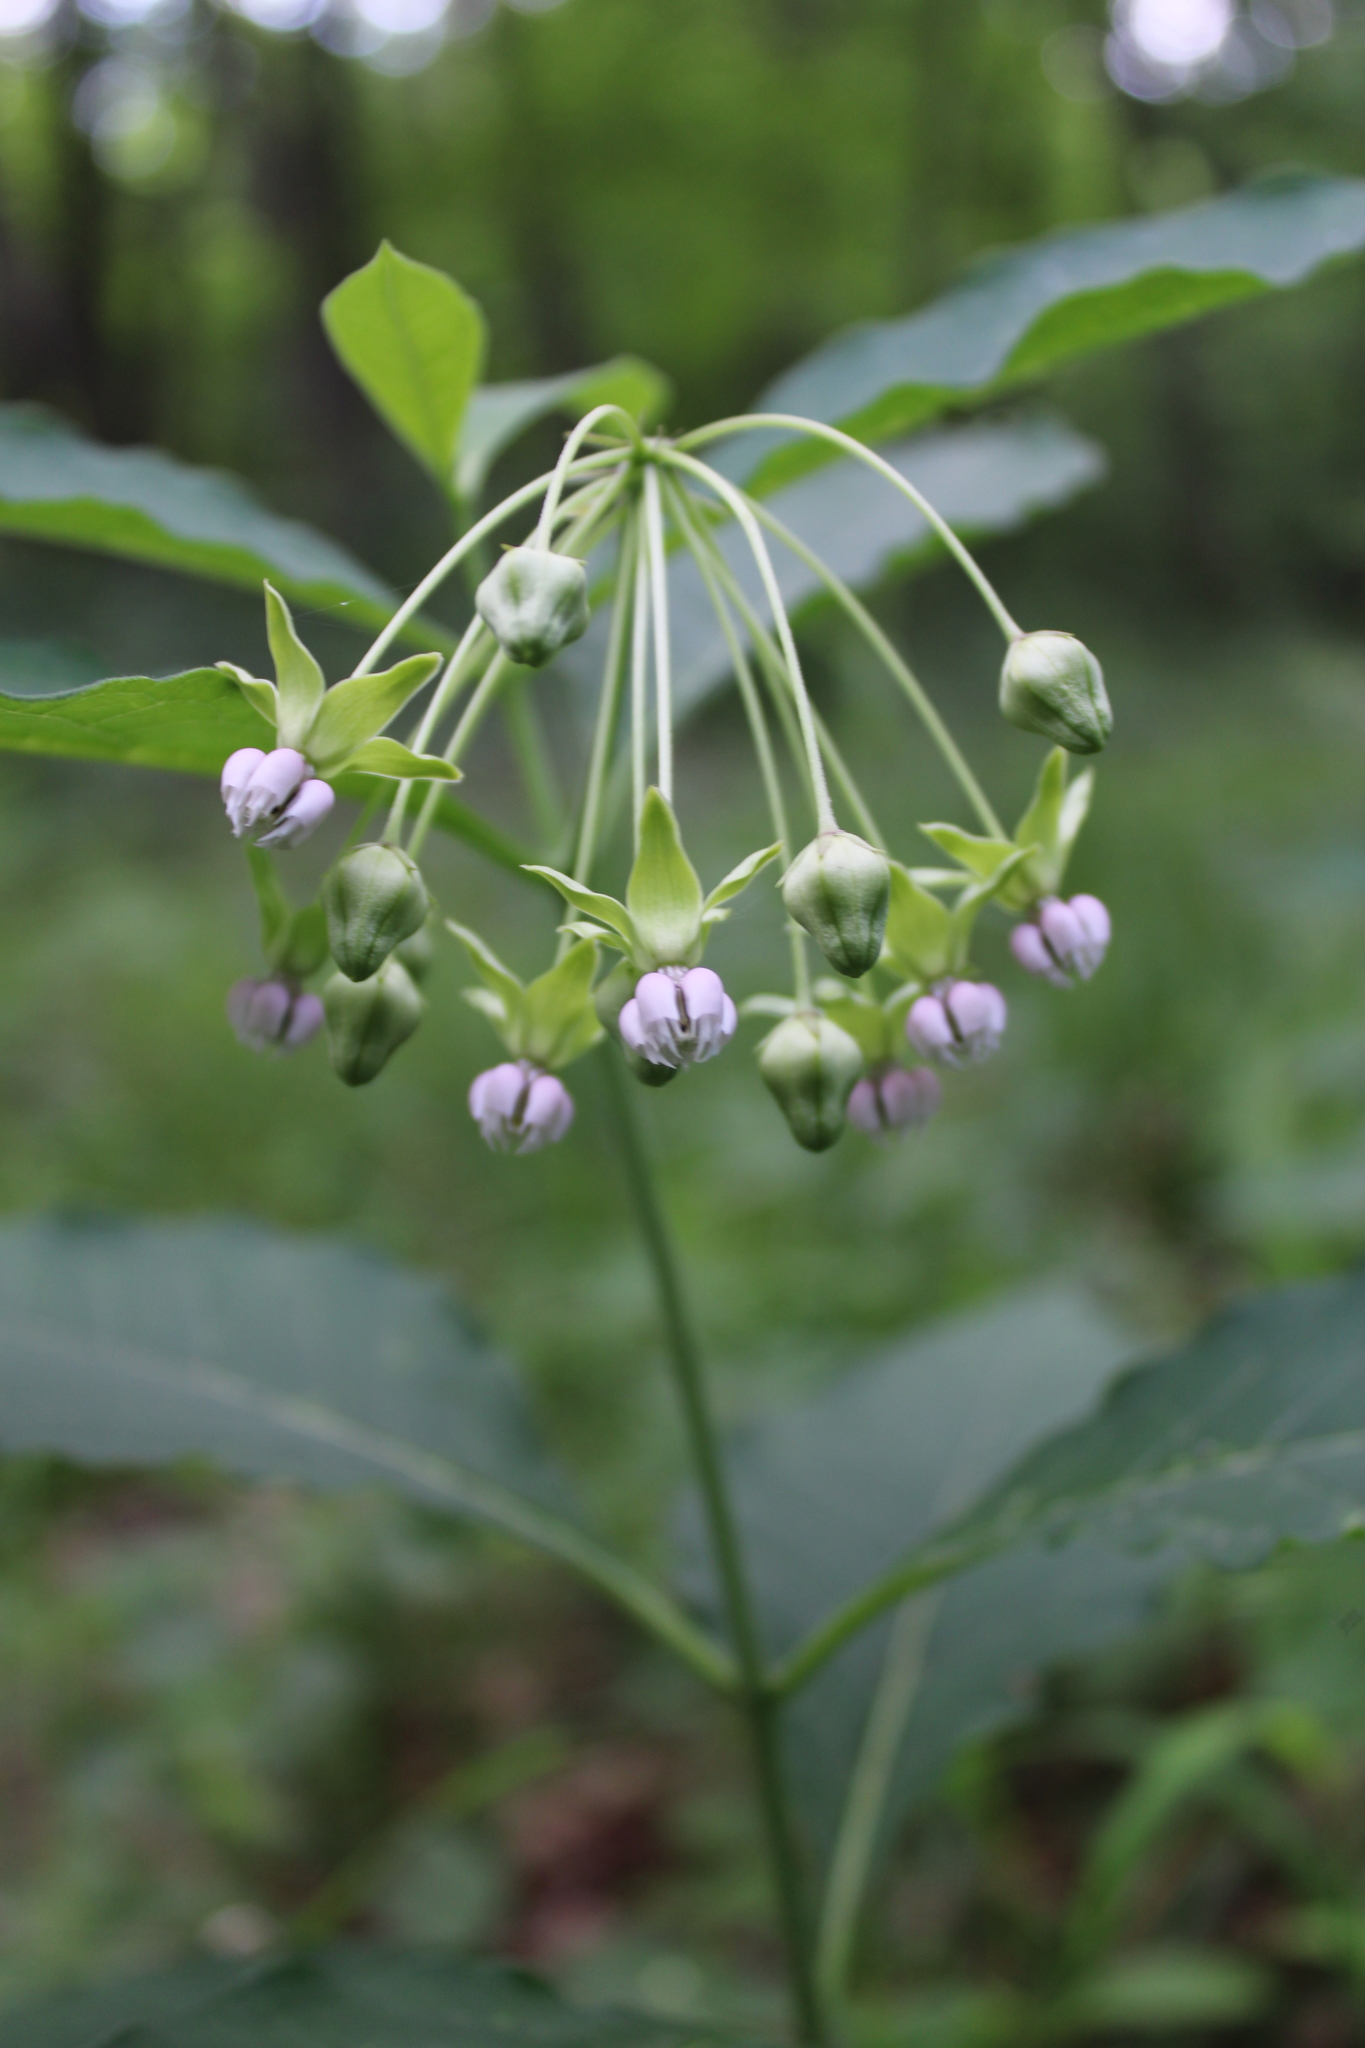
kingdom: Plantae
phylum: Tracheophyta
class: Magnoliopsida
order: Gentianales
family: Apocynaceae
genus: Asclepias
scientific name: Asclepias exaltata
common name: Poke milkweed
